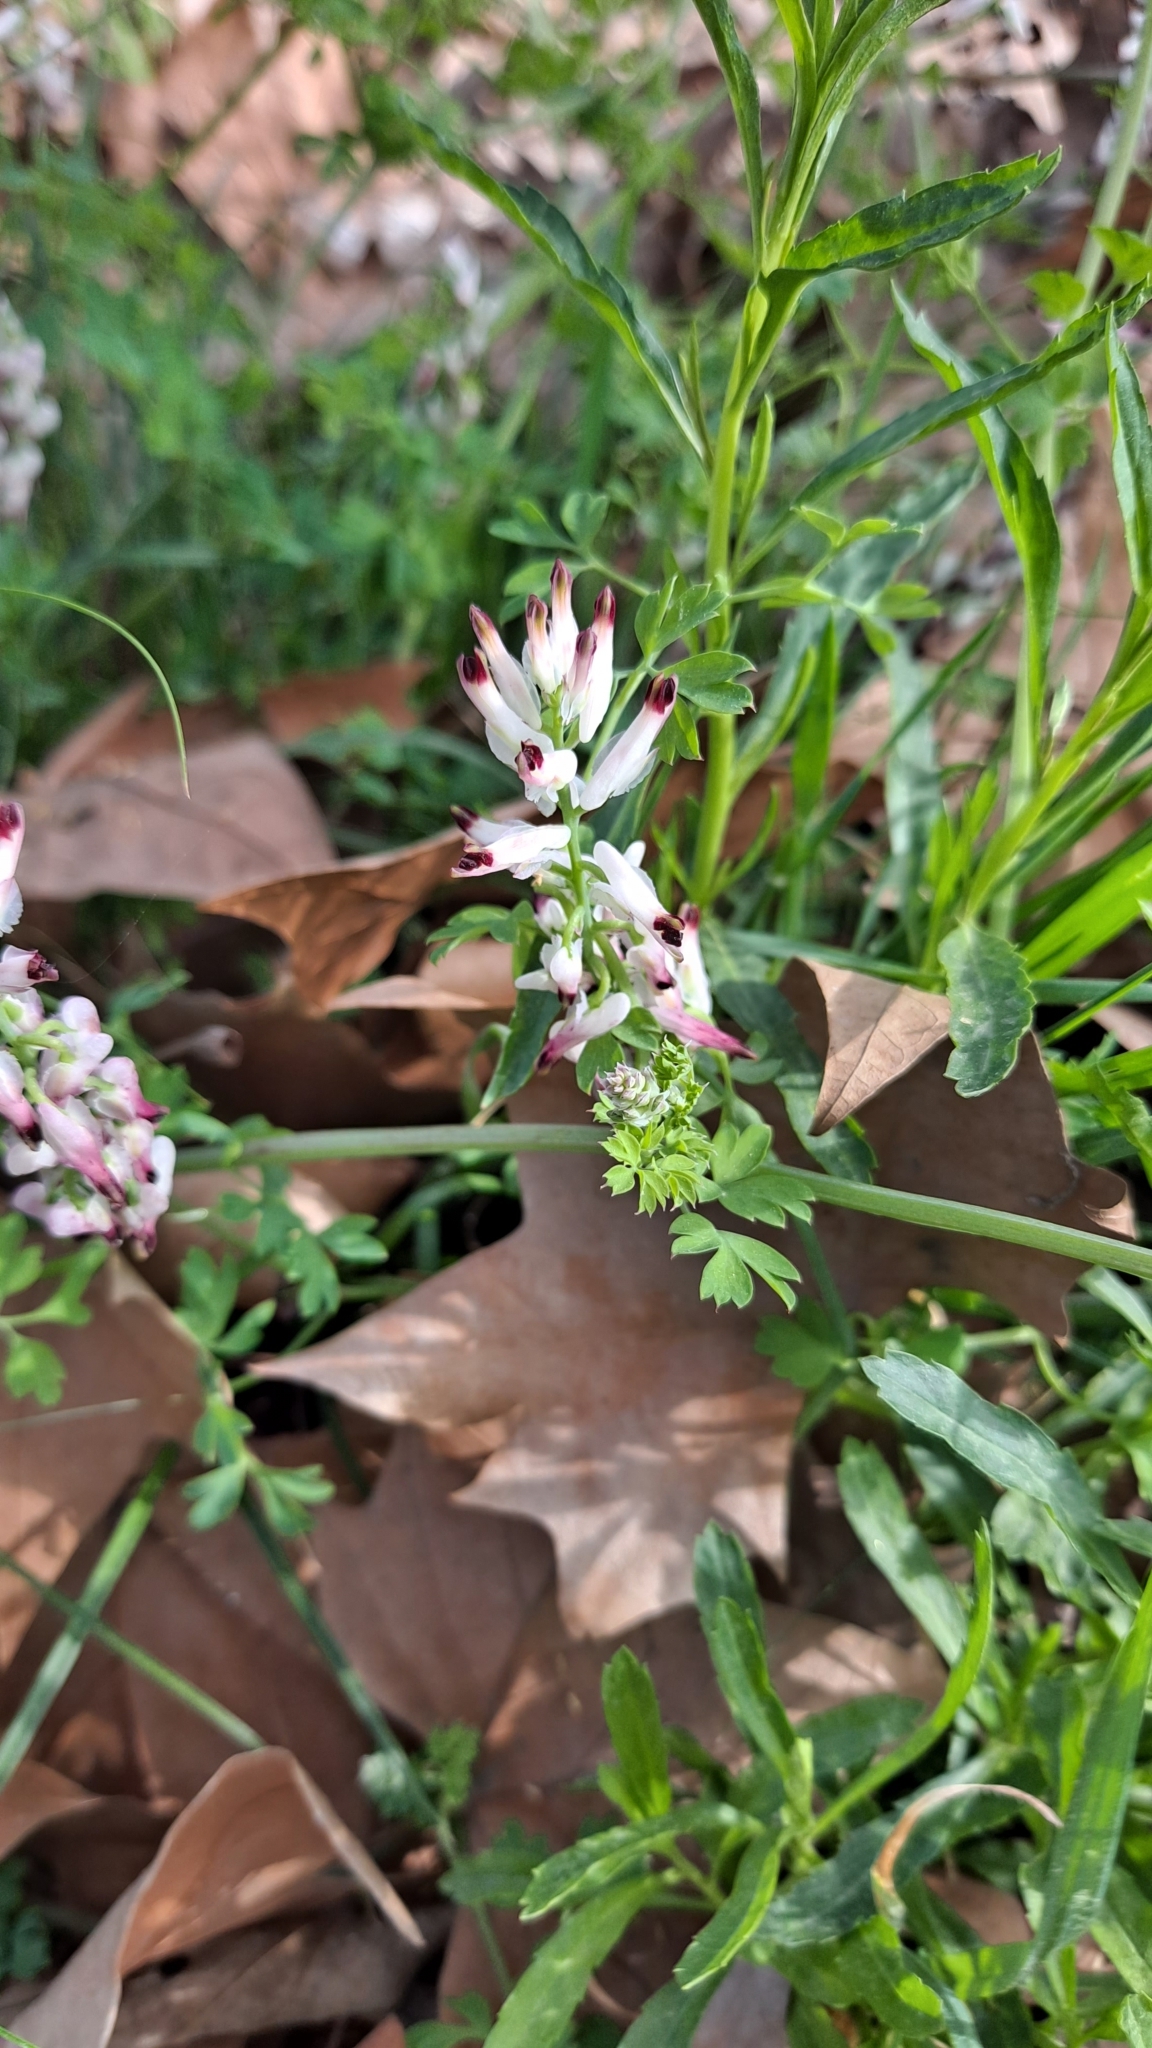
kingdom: Plantae
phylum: Tracheophyta
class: Magnoliopsida
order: Ranunculales
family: Papaveraceae
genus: Fumaria
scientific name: Fumaria capreolata
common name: White ramping-fumitory
